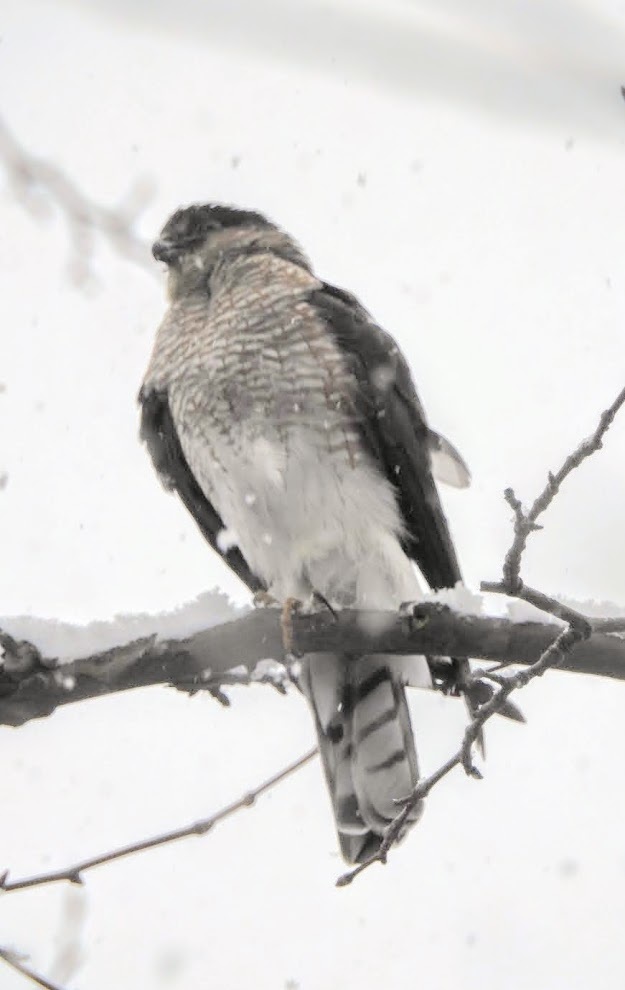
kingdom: Animalia
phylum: Chordata
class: Aves
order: Accipitriformes
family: Accipitridae
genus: Accipiter
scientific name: Accipiter striatus
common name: Sharp-shinned hawk
